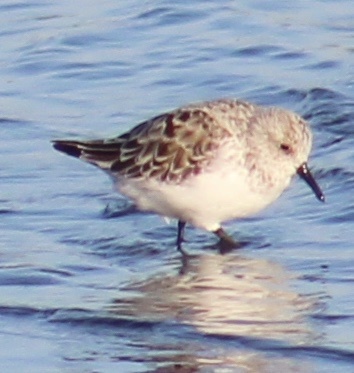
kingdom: Animalia
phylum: Chordata
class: Aves
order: Charadriiformes
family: Scolopacidae
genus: Calidris
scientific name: Calidris alba
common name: Sanderling
